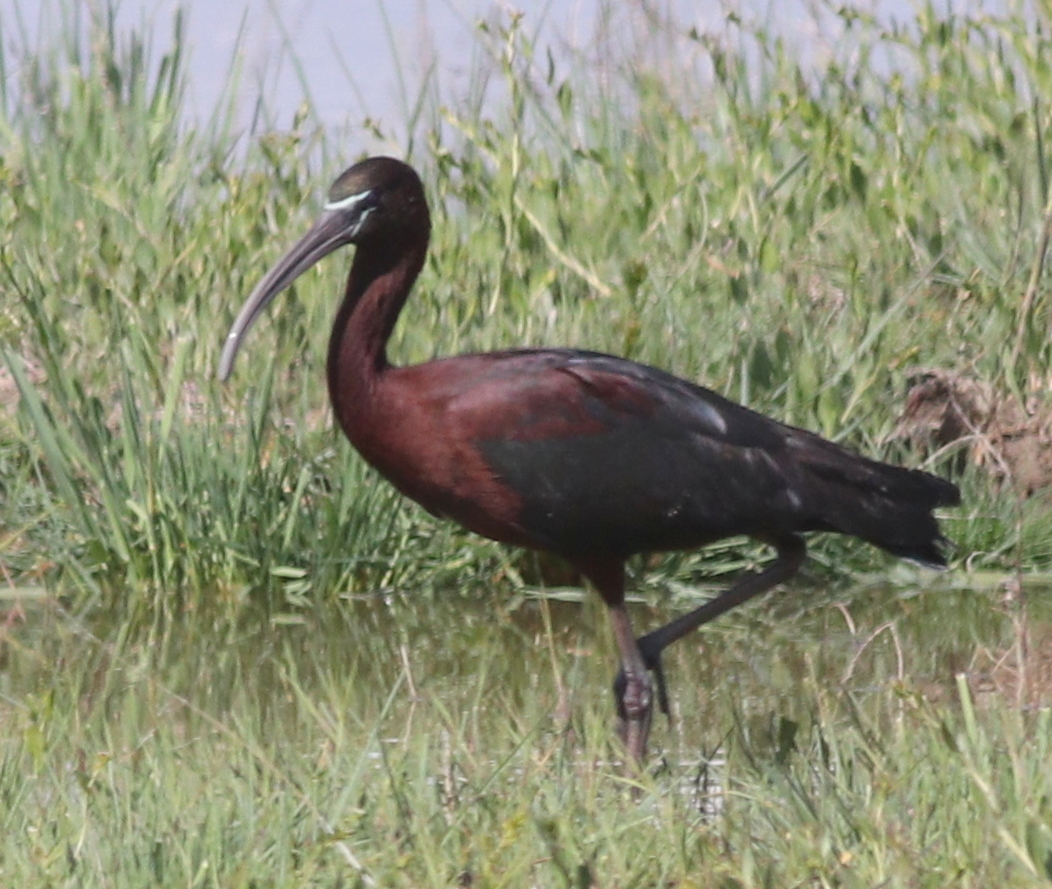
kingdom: Animalia
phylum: Chordata
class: Aves
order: Pelecaniformes
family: Threskiornithidae
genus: Plegadis
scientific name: Plegadis falcinellus
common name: Glossy ibis
